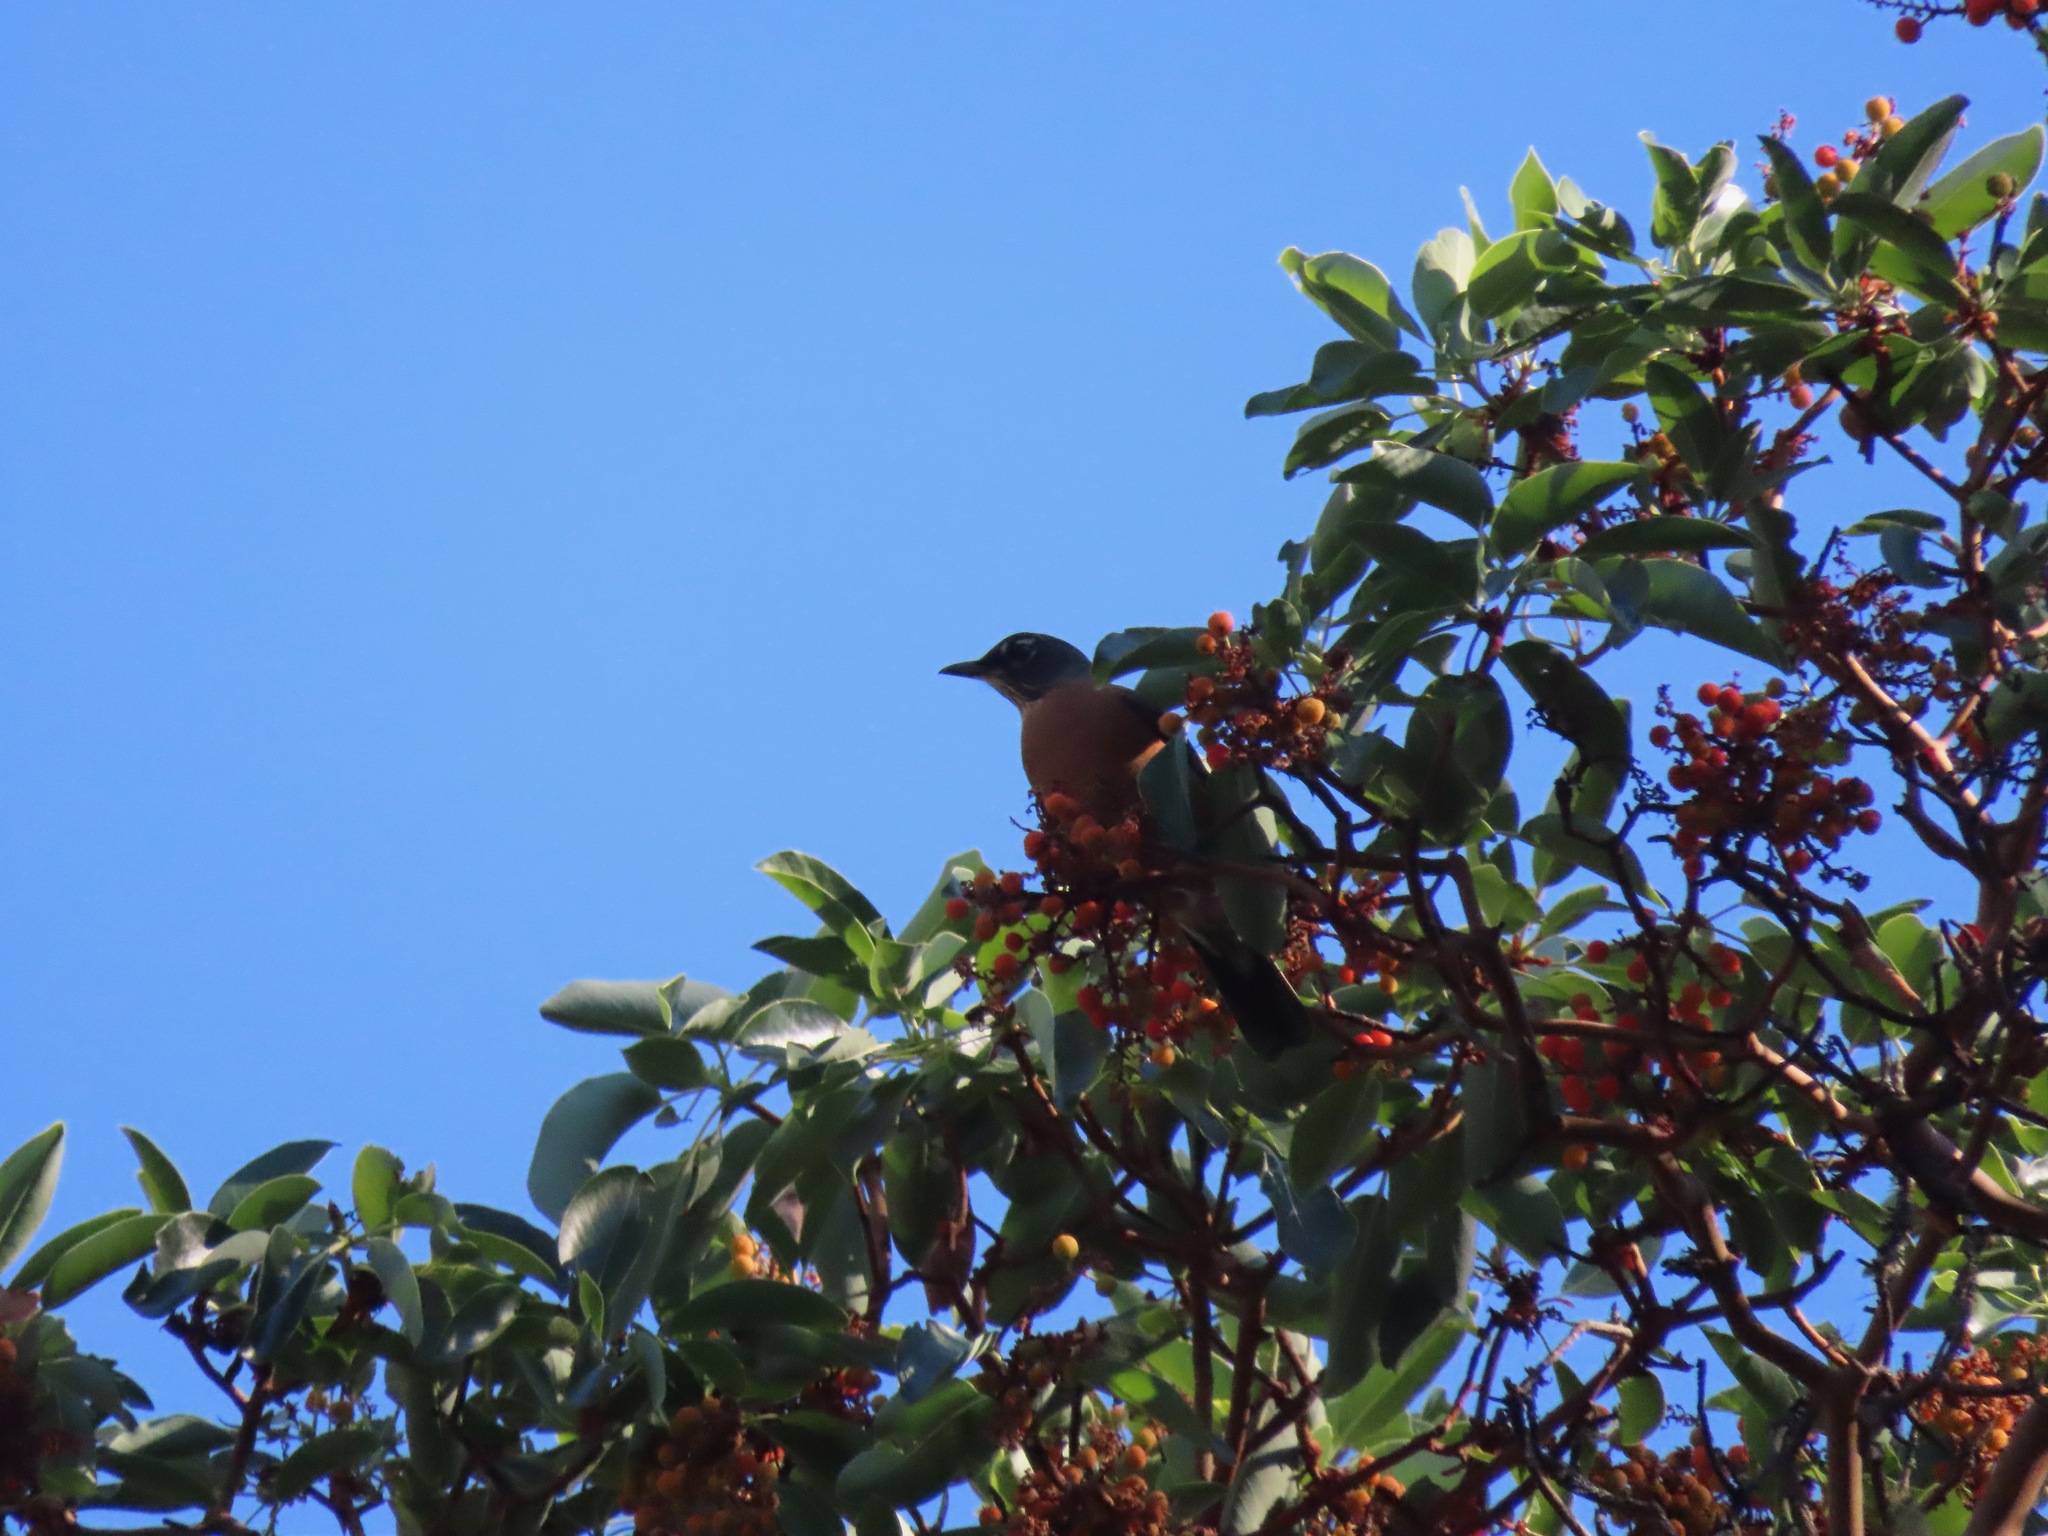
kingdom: Animalia
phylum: Chordata
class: Aves
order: Passeriformes
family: Turdidae
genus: Turdus
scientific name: Turdus migratorius
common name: American robin
